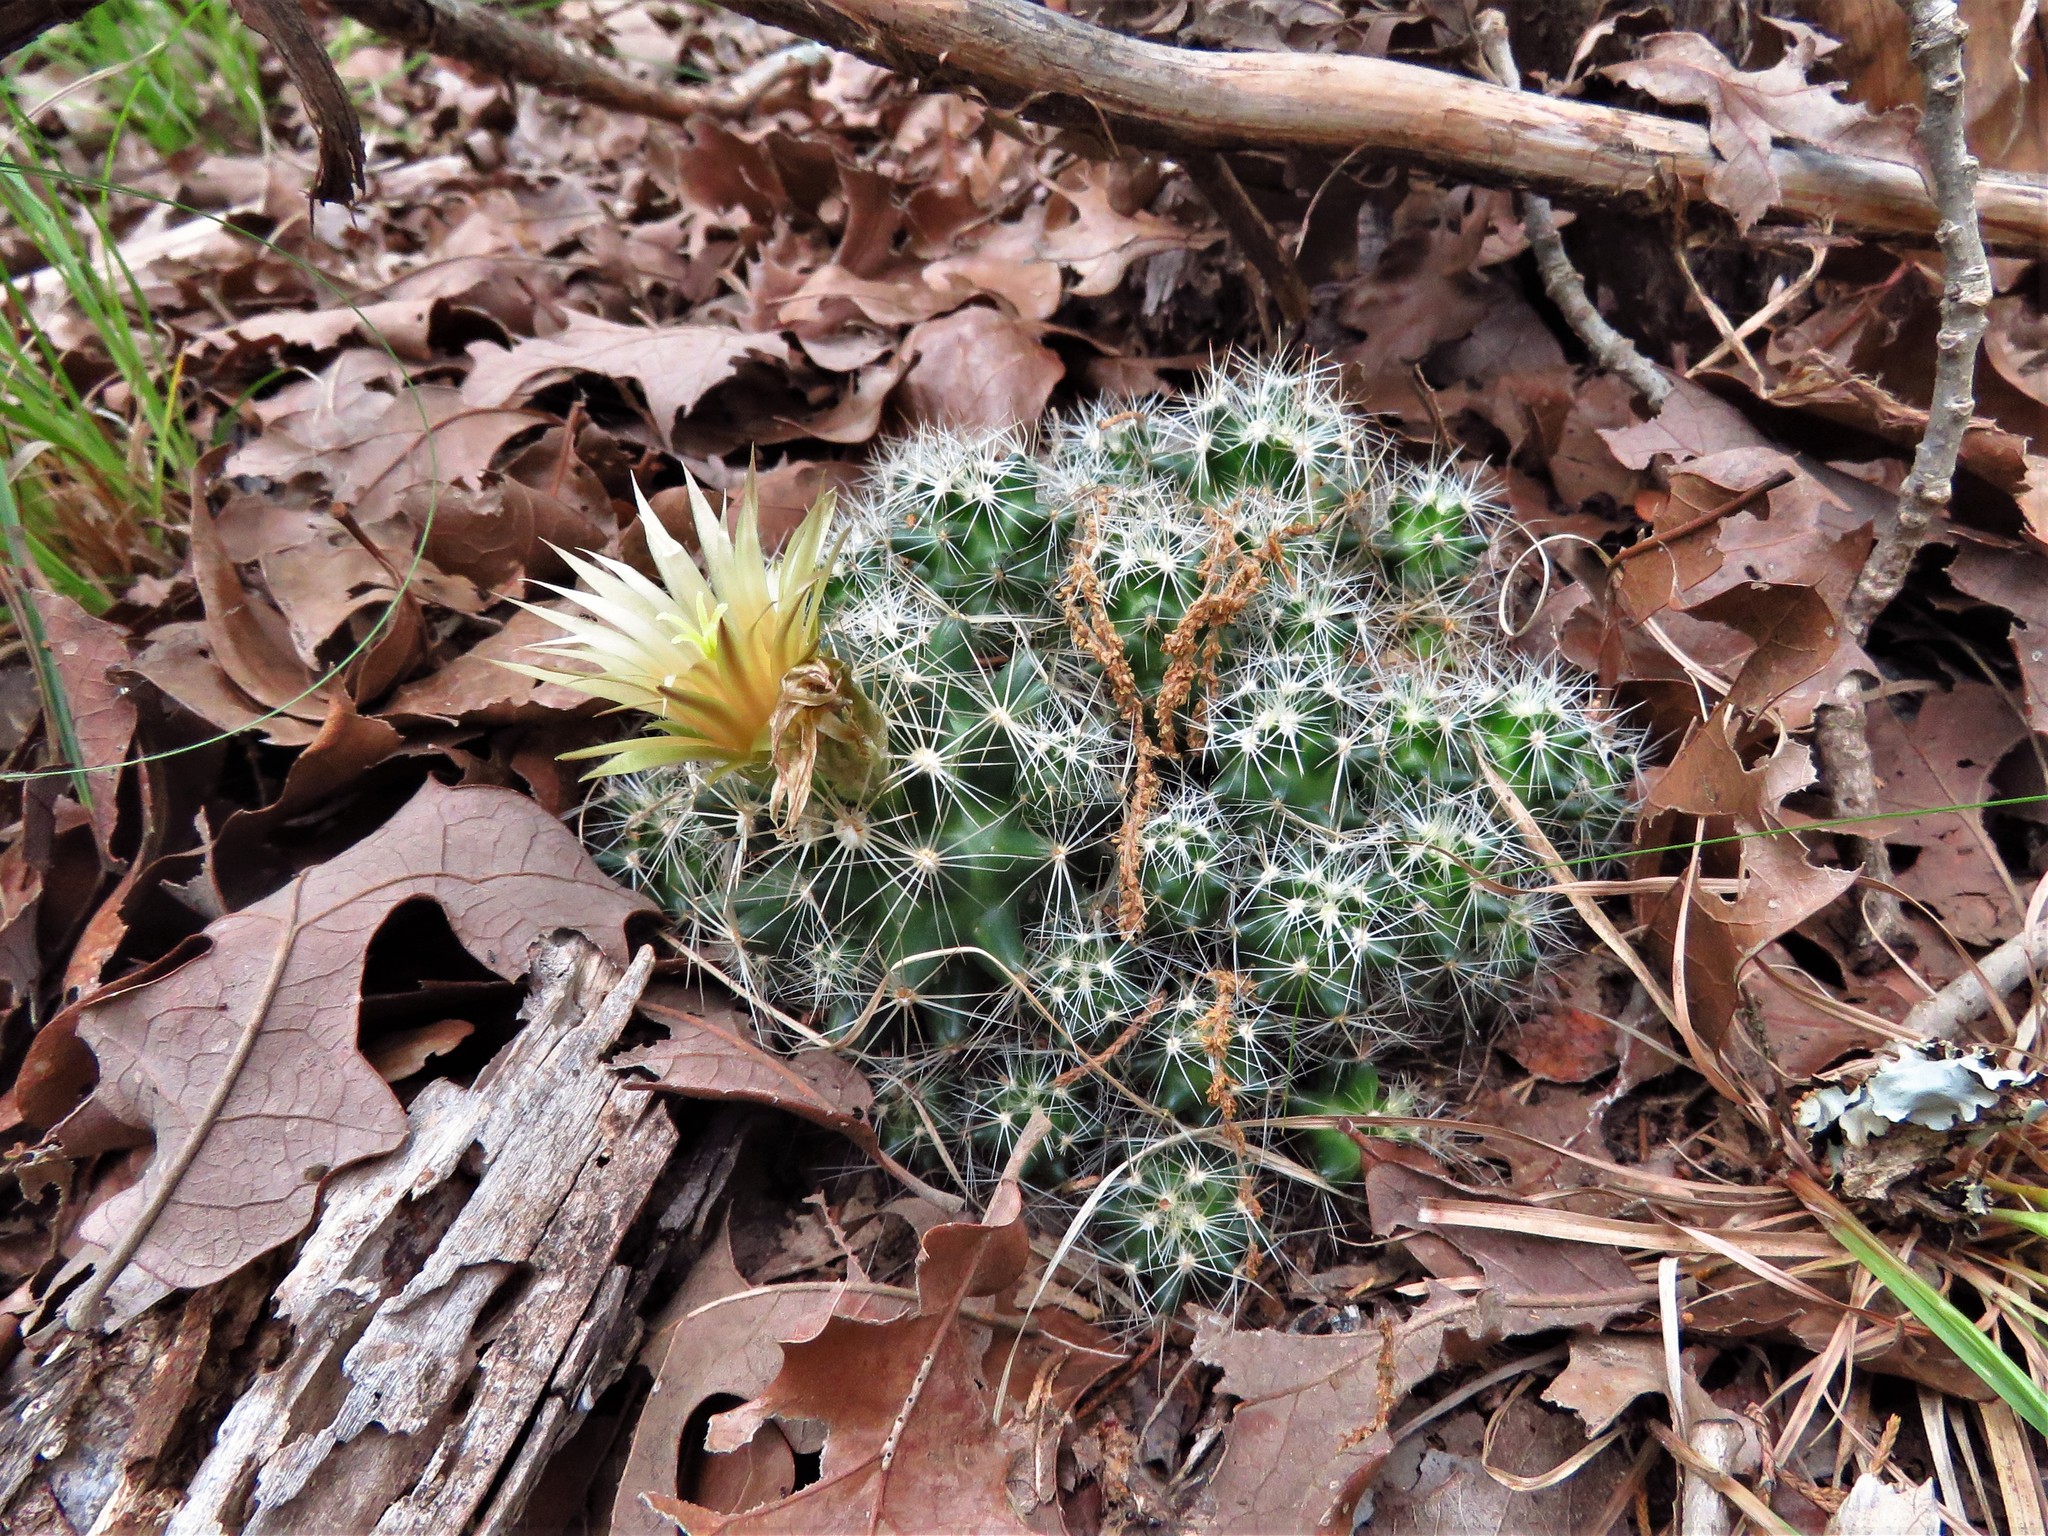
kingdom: Plantae
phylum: Tracheophyta
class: Magnoliopsida
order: Caryophyllales
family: Cactaceae
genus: Pelecyphora
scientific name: Pelecyphora missouriensis
